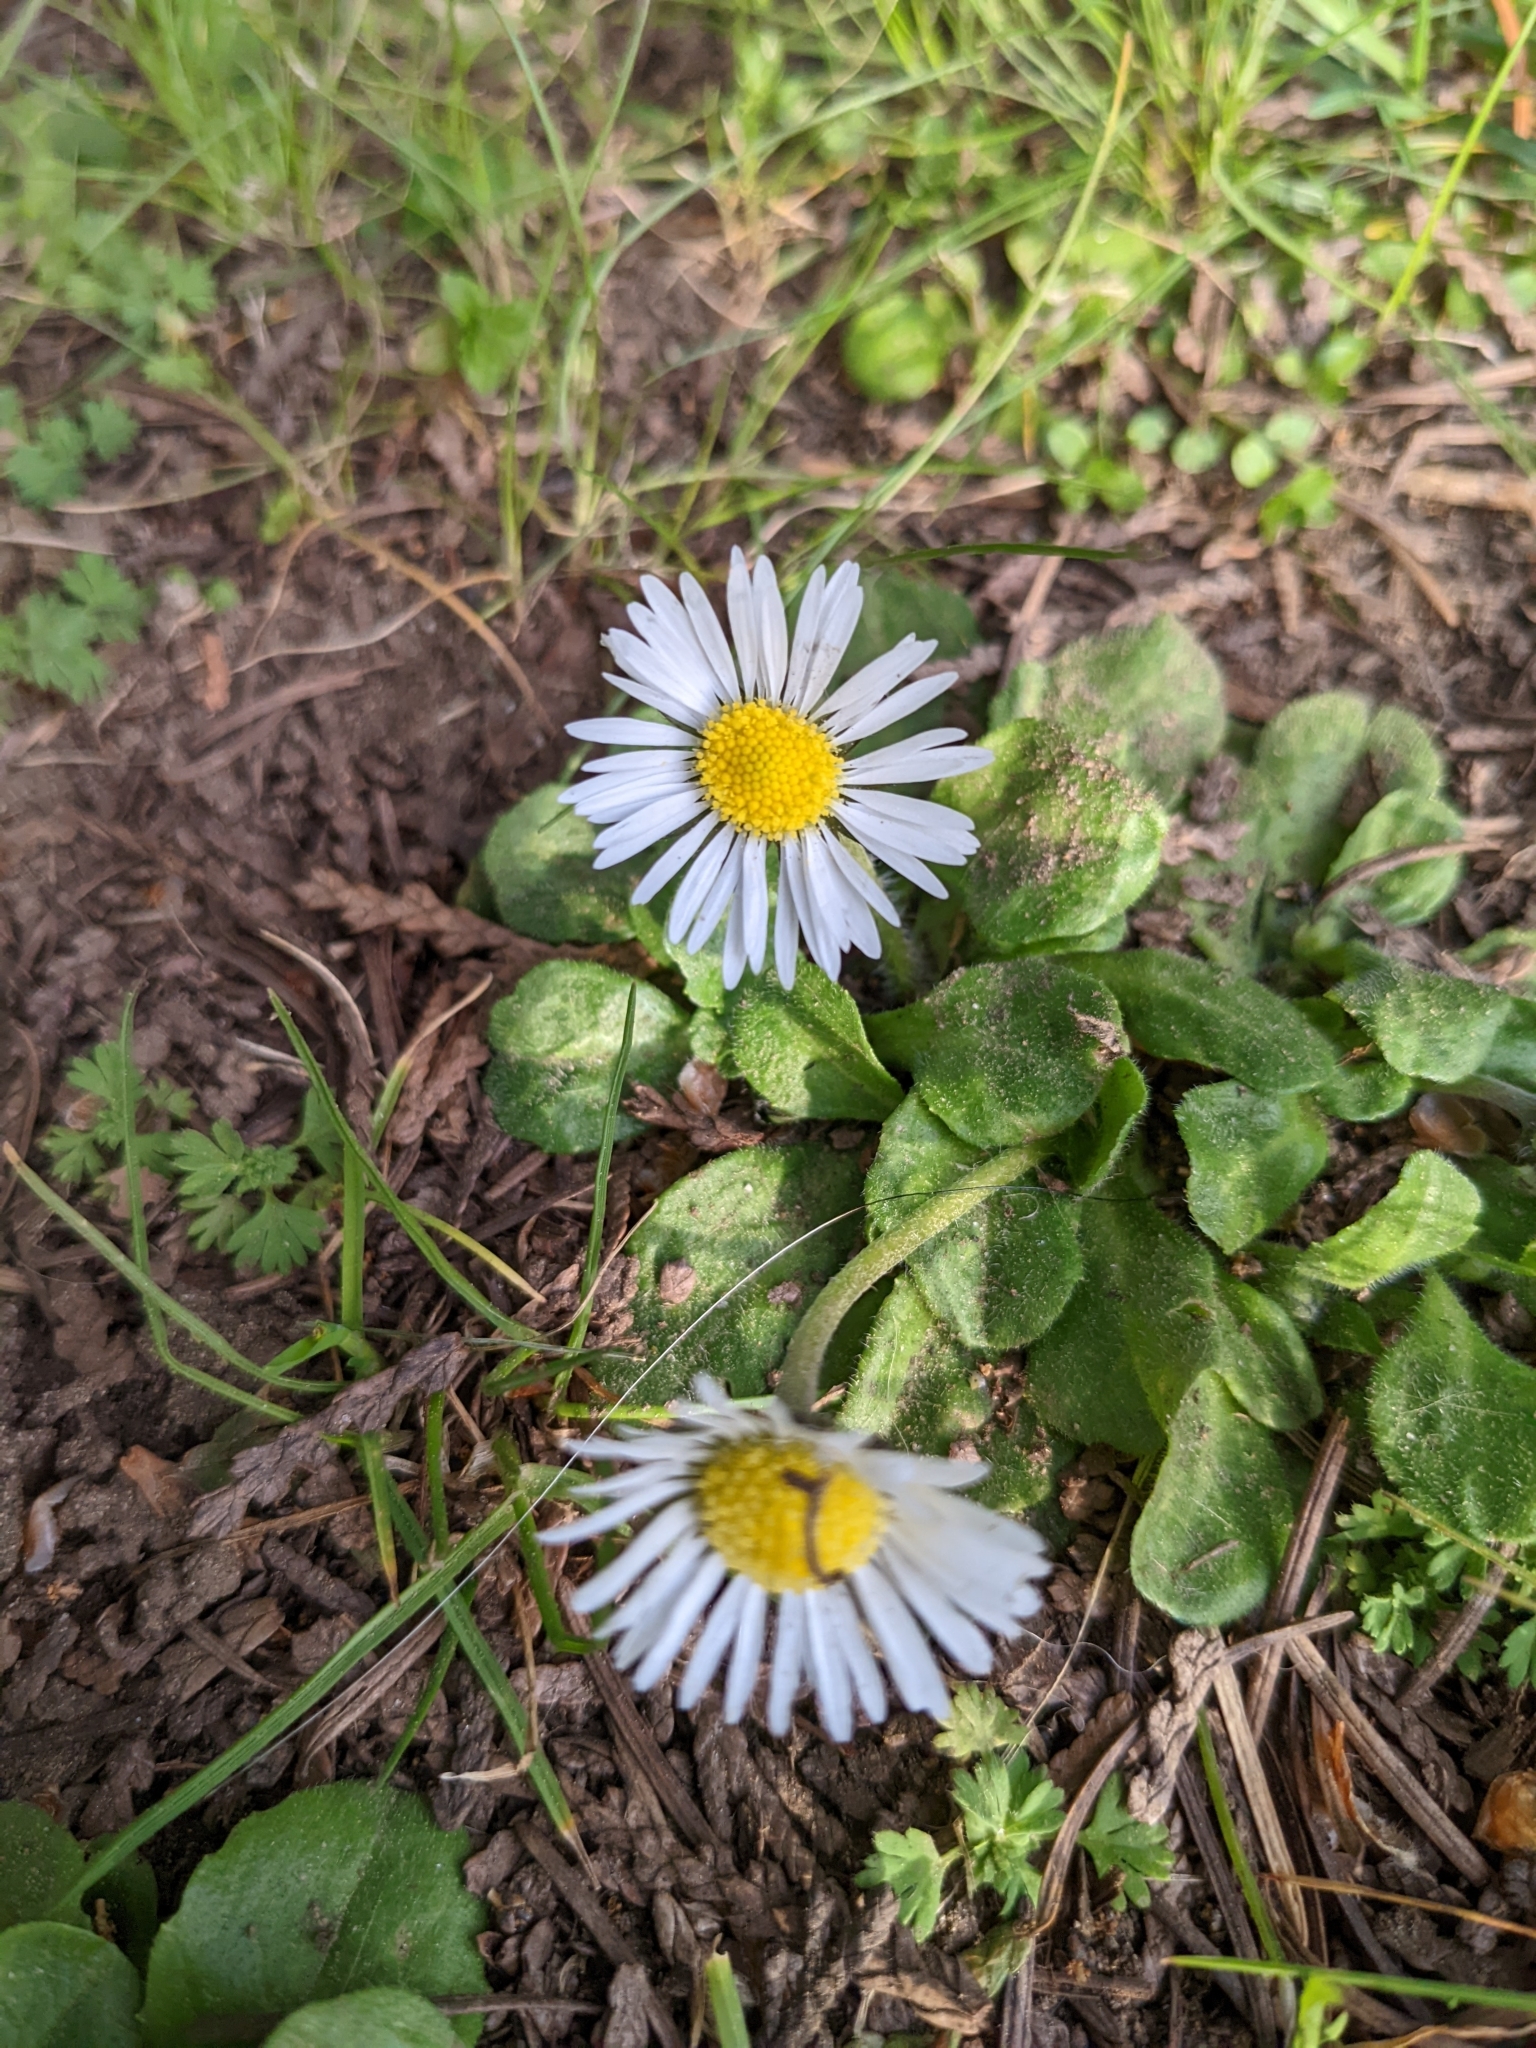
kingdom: Plantae
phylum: Tracheophyta
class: Magnoliopsida
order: Asterales
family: Asteraceae
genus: Bellis
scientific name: Bellis perennis
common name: Lawndaisy
